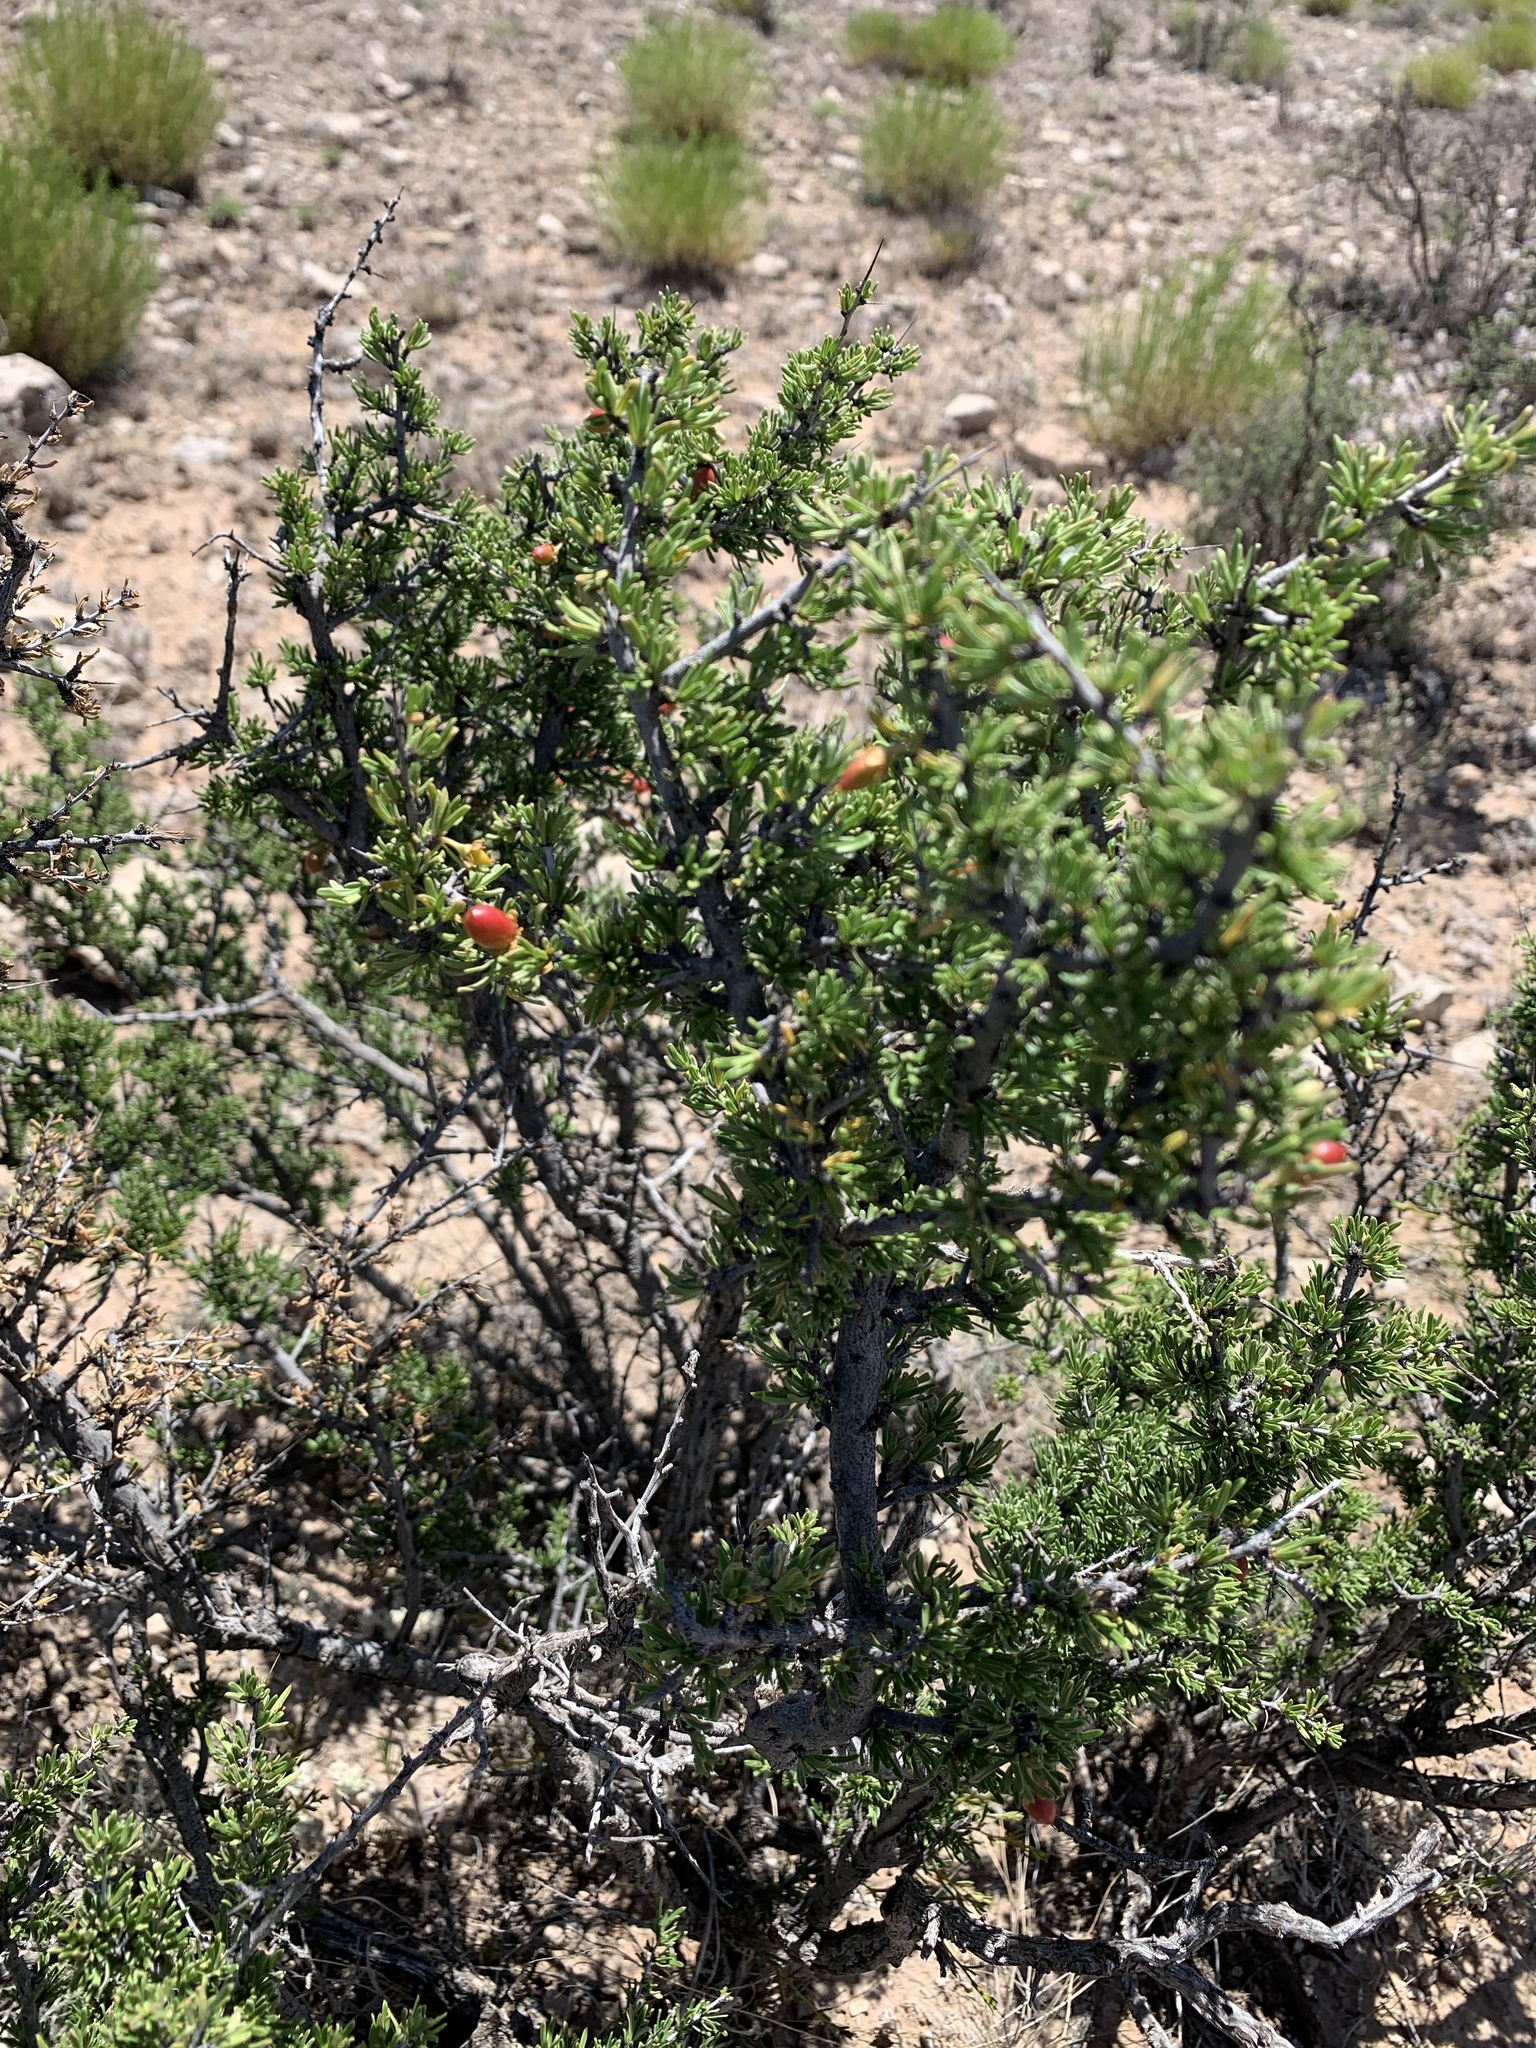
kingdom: Plantae
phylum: Tracheophyta
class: Magnoliopsida
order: Rosales
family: Rhamnaceae
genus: Condalia
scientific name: Condalia ericoides
